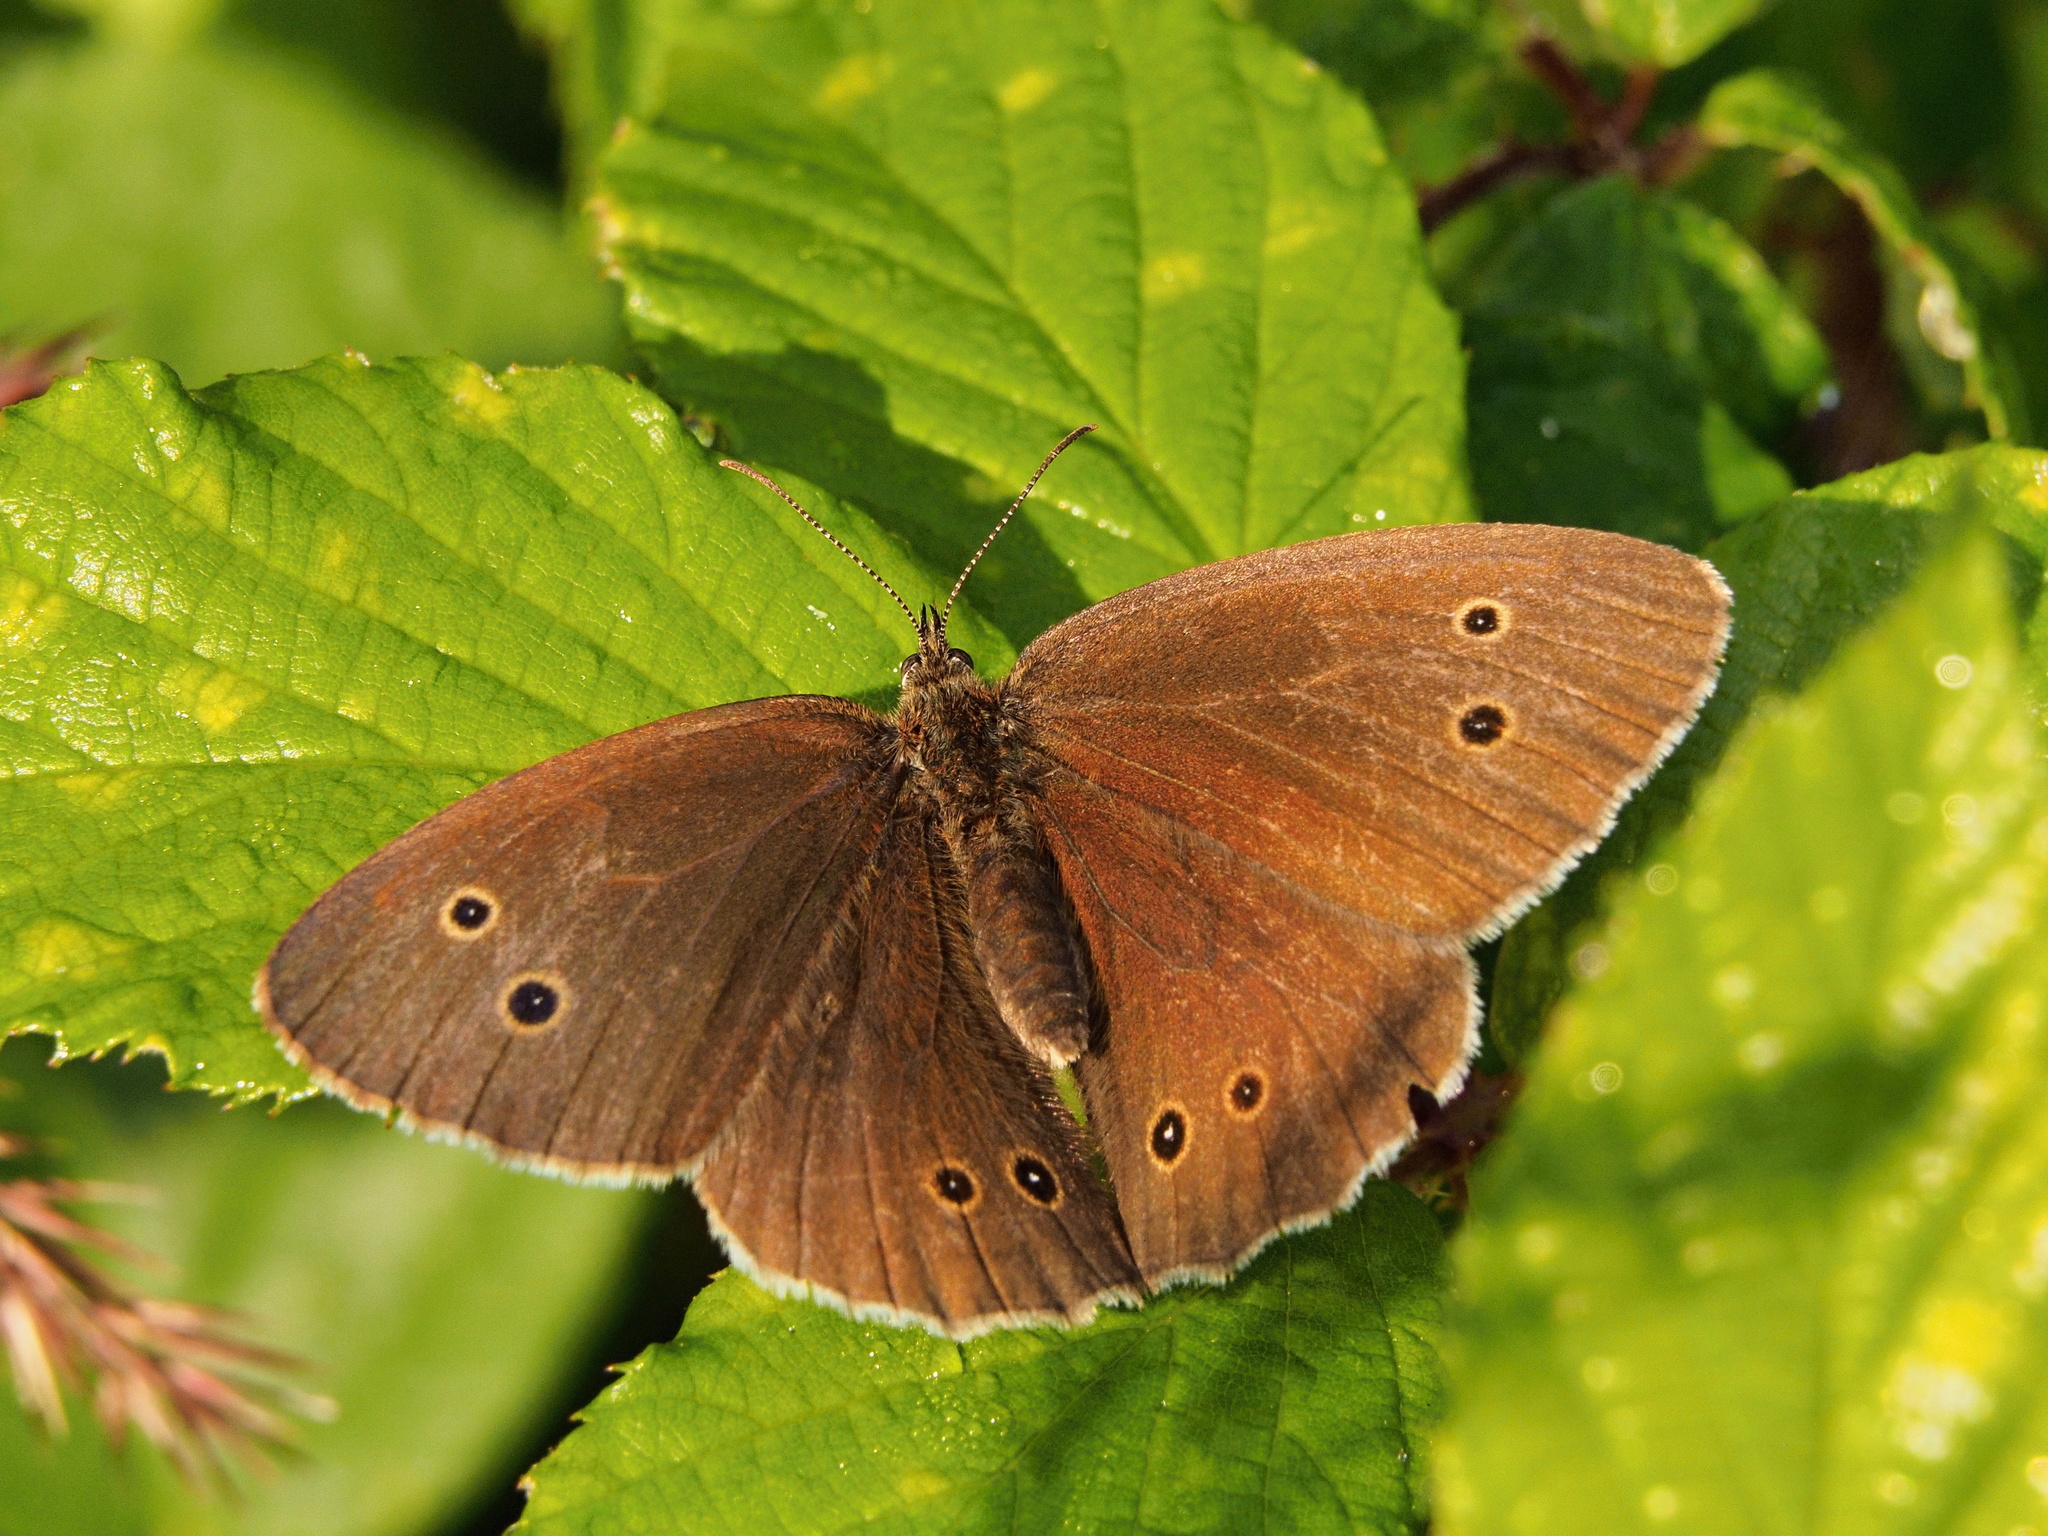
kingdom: Animalia
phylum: Arthropoda
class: Insecta
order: Lepidoptera
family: Nymphalidae
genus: Aphantopus
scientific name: Aphantopus hyperantus
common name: Ringlet
